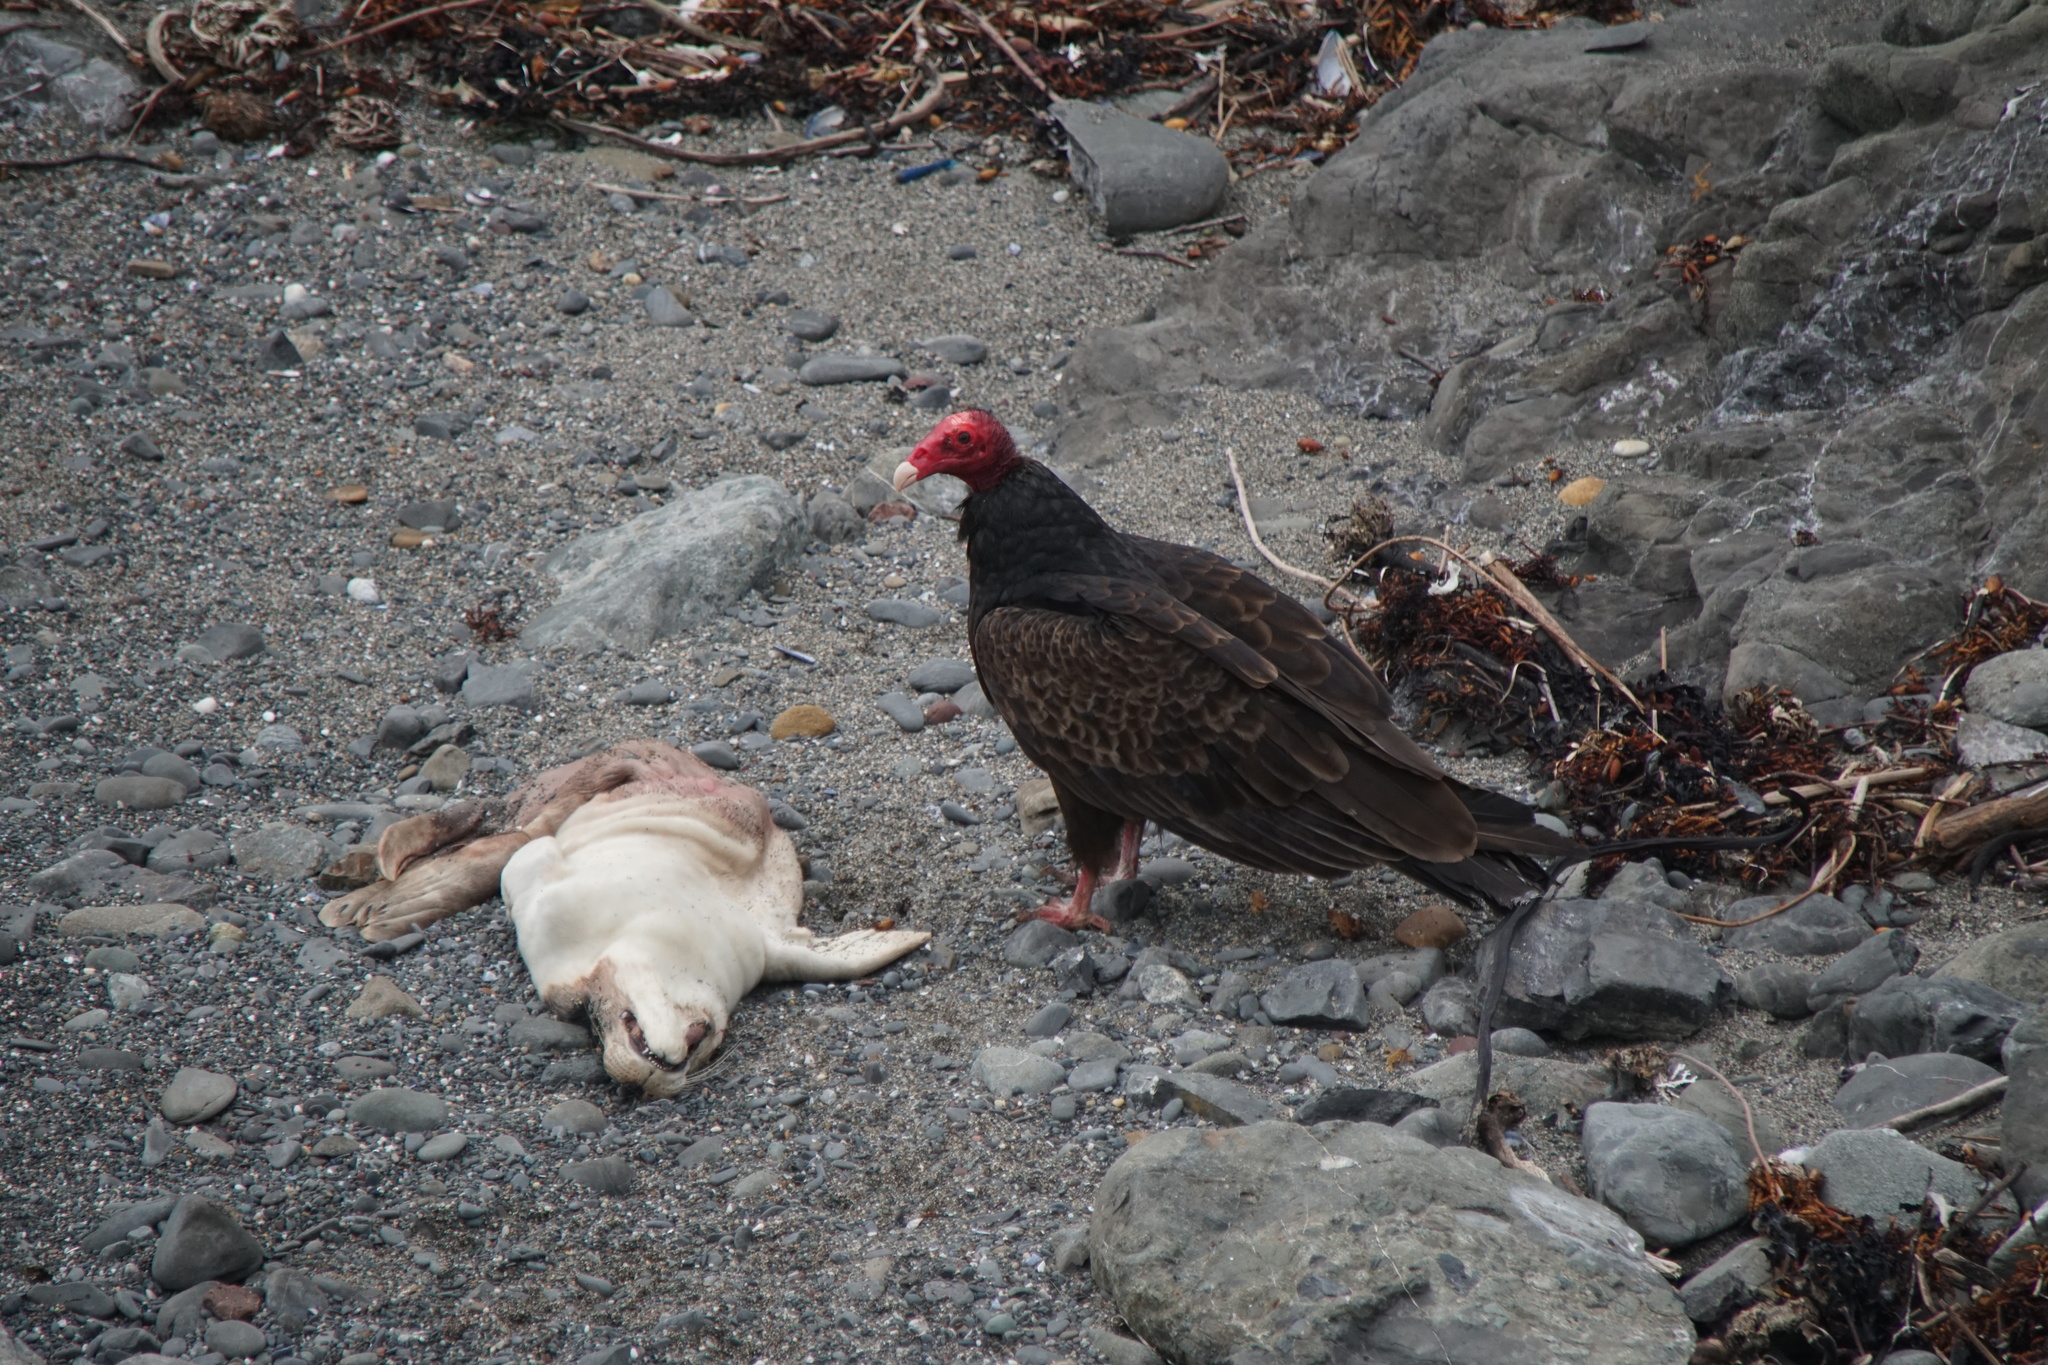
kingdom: Animalia
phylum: Chordata
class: Aves
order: Accipitriformes
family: Cathartidae
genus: Cathartes
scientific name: Cathartes aura
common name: Turkey vulture
